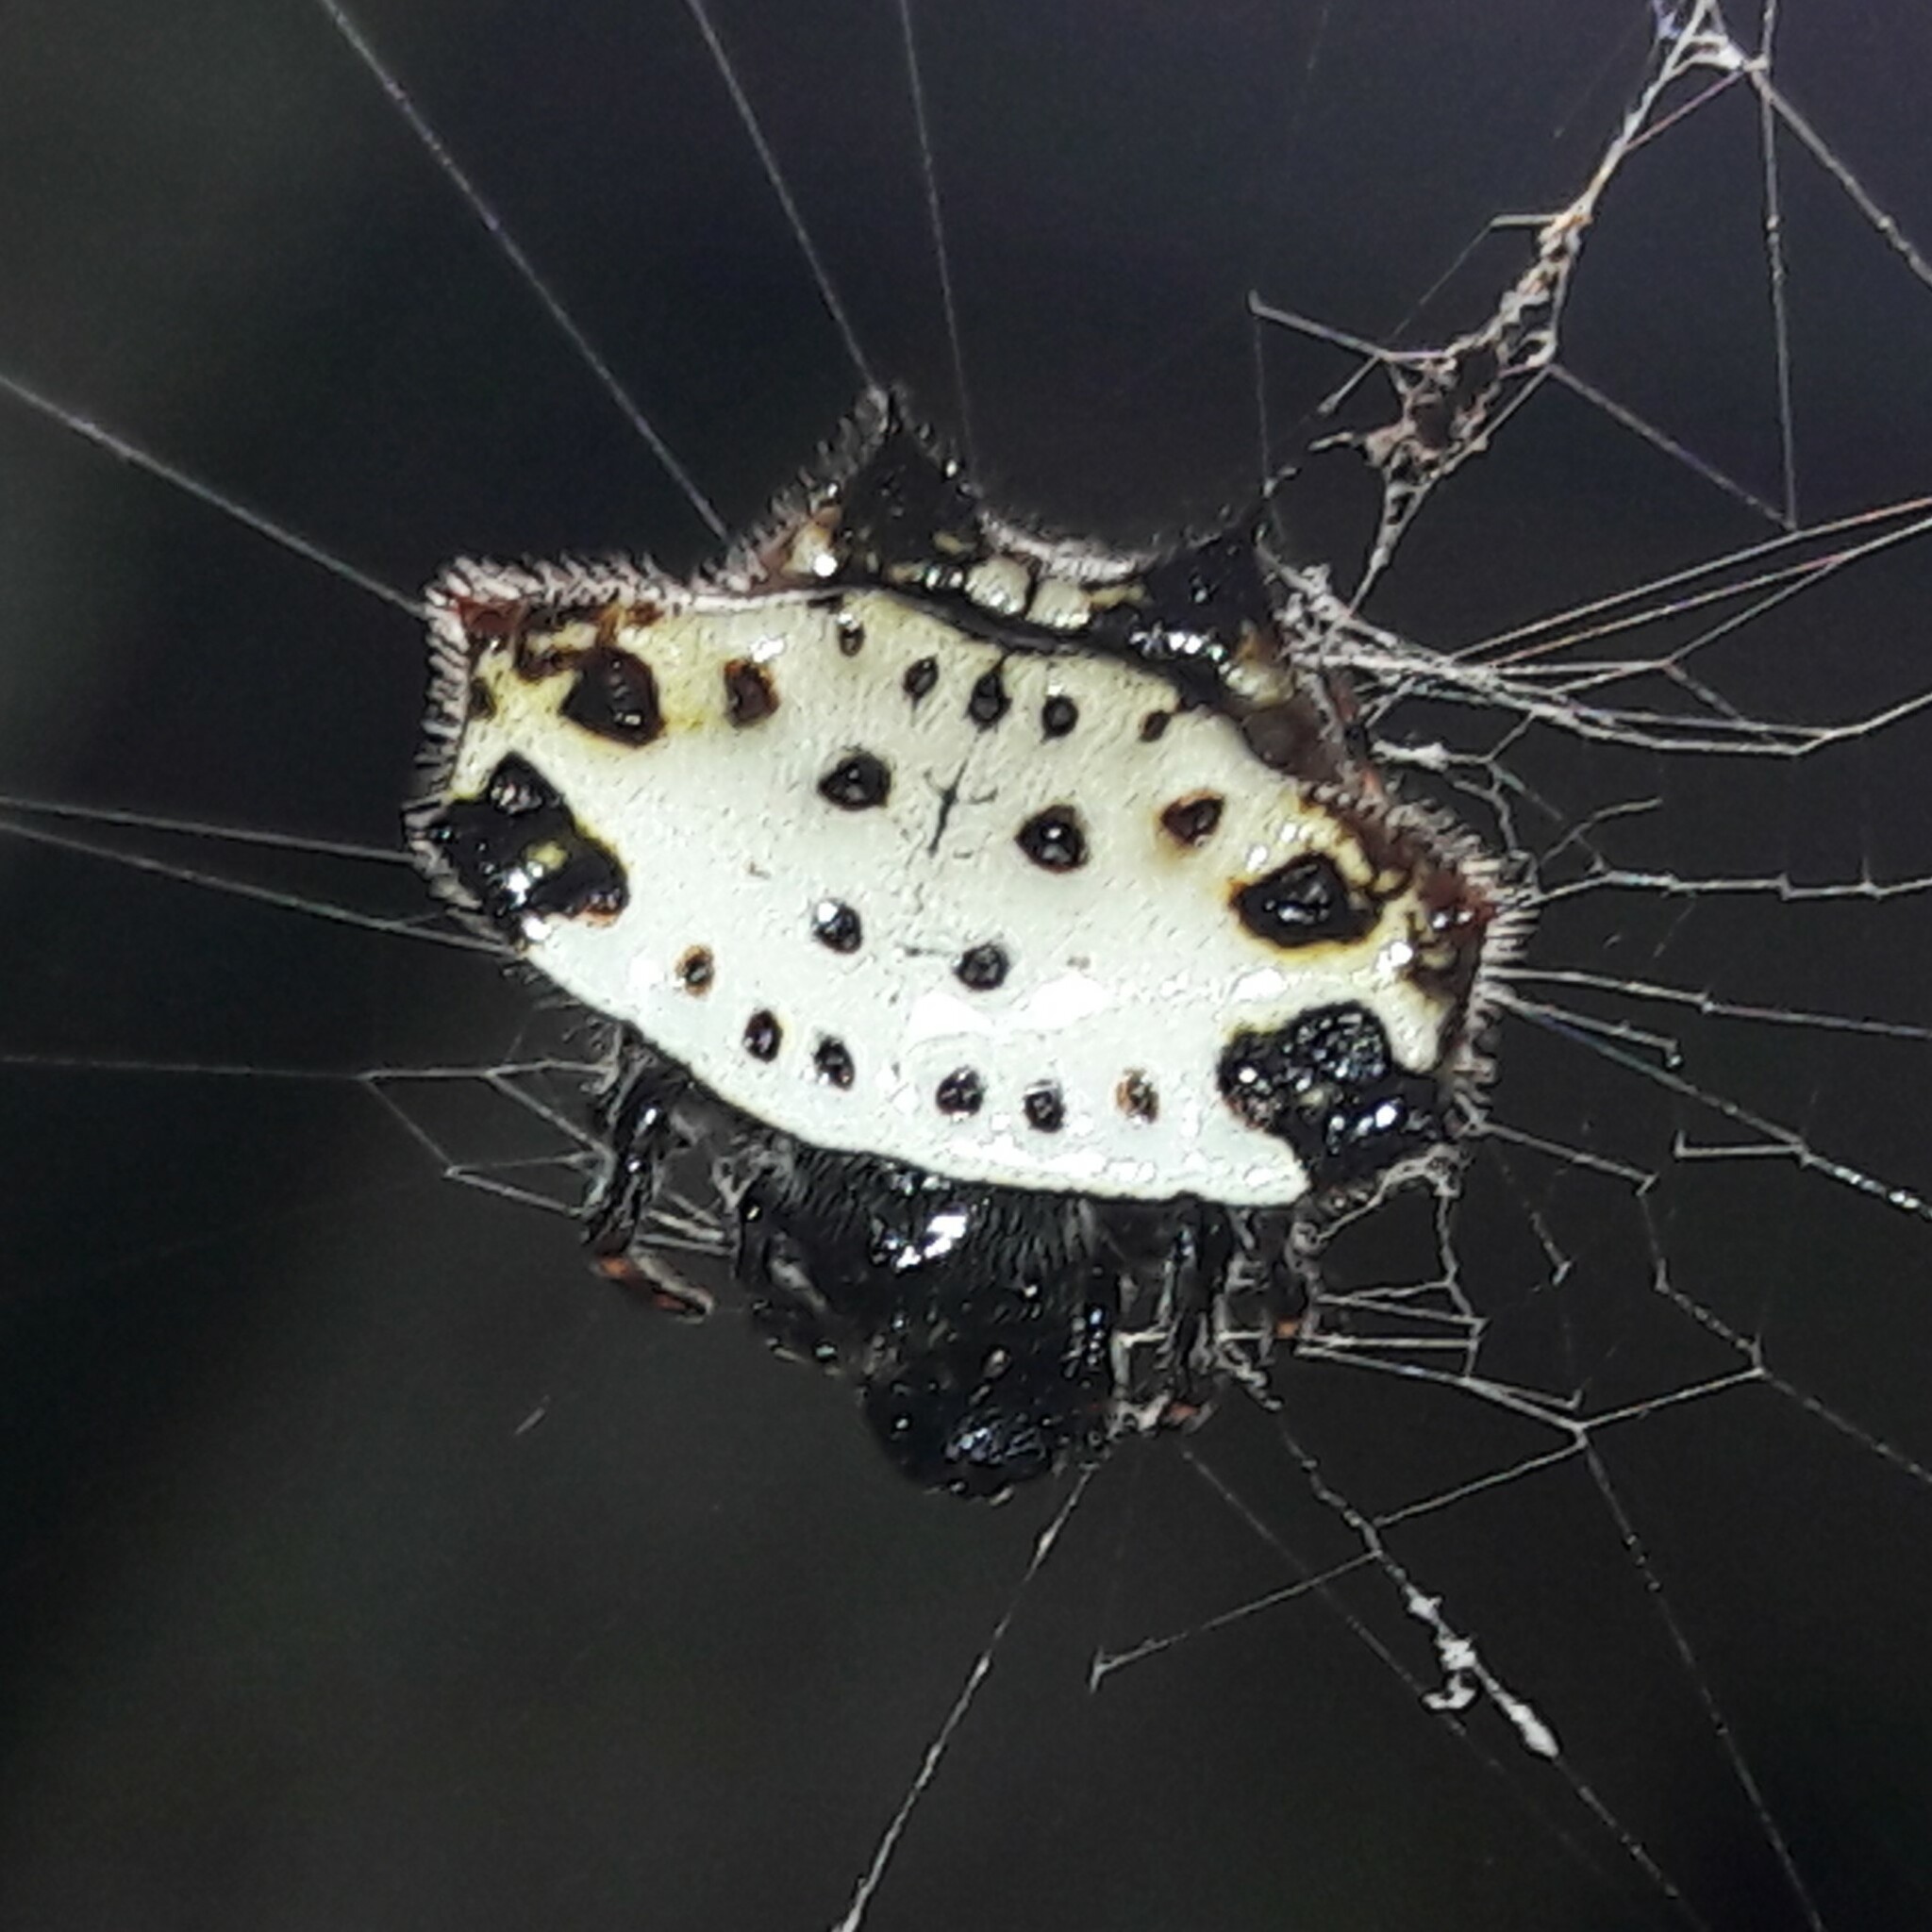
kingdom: Animalia
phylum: Arthropoda
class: Arachnida
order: Araneae
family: Araneidae
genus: Gasteracantha
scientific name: Gasteracantha cancriformis
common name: Orb weavers
